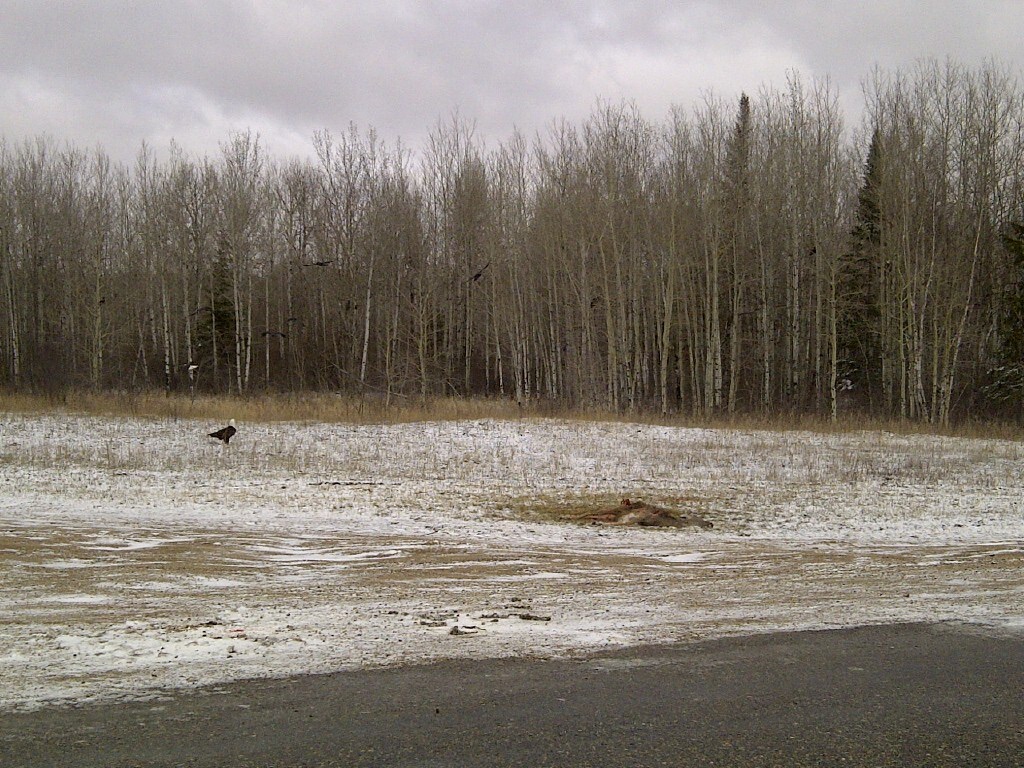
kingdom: Animalia
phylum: Chordata
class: Aves
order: Accipitriformes
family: Accipitridae
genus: Haliaeetus
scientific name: Haliaeetus leucocephalus
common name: Bald eagle
